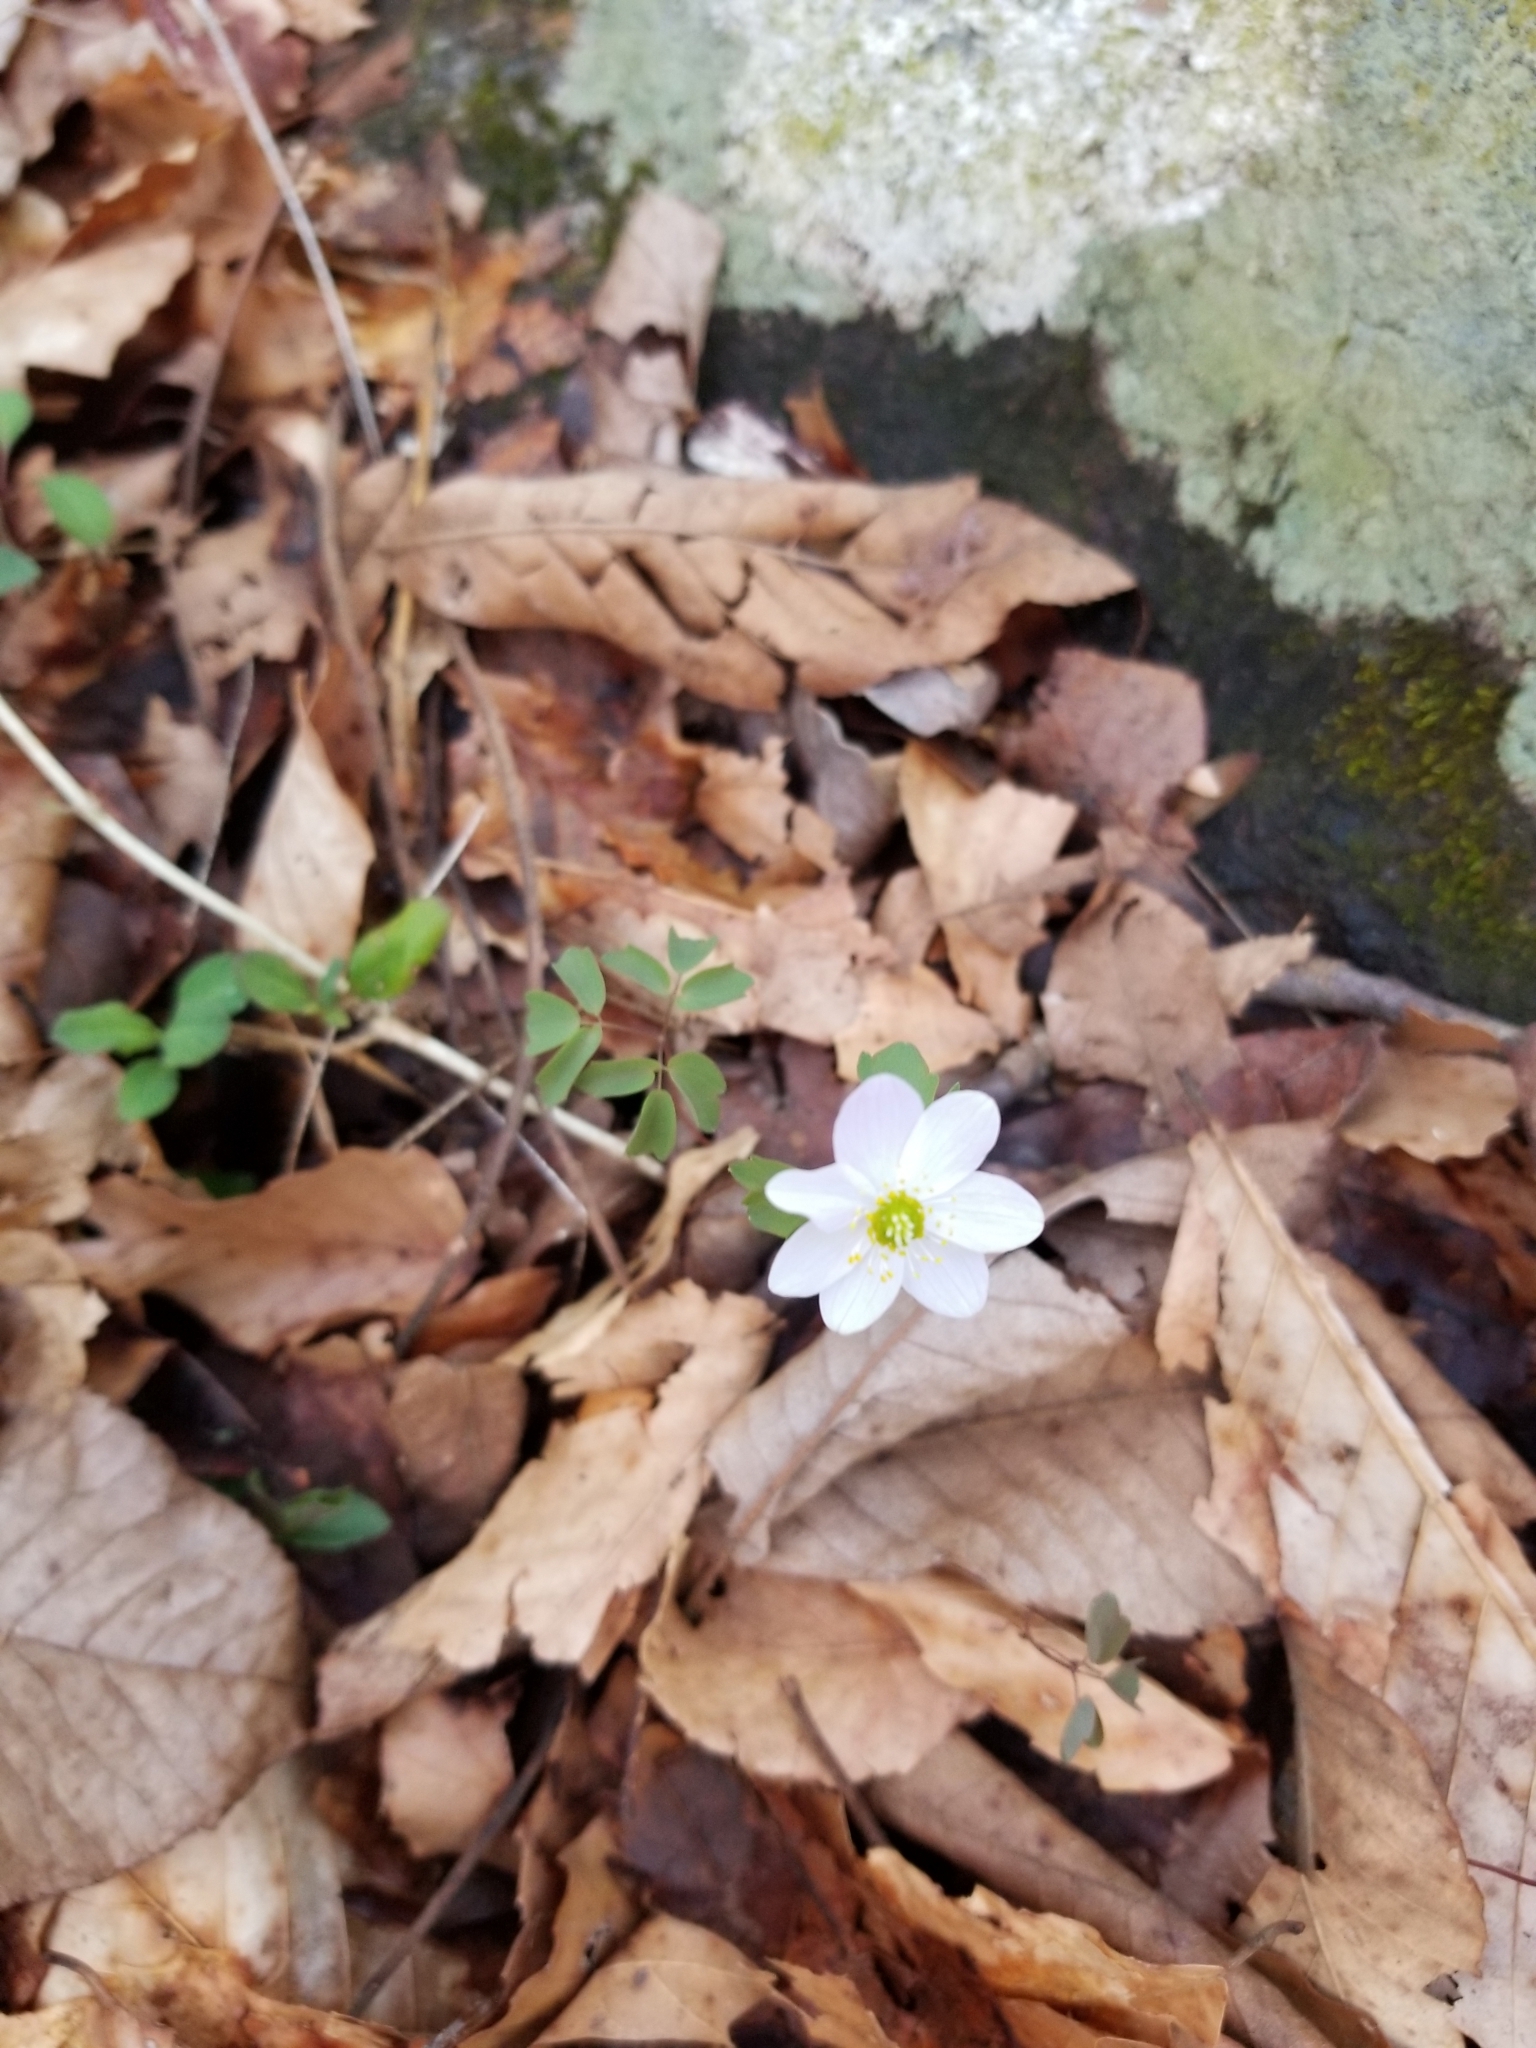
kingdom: Plantae
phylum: Tracheophyta
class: Magnoliopsida
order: Ranunculales
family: Ranunculaceae
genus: Thalictrum
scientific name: Thalictrum thalictroides
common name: Rue-anemone
